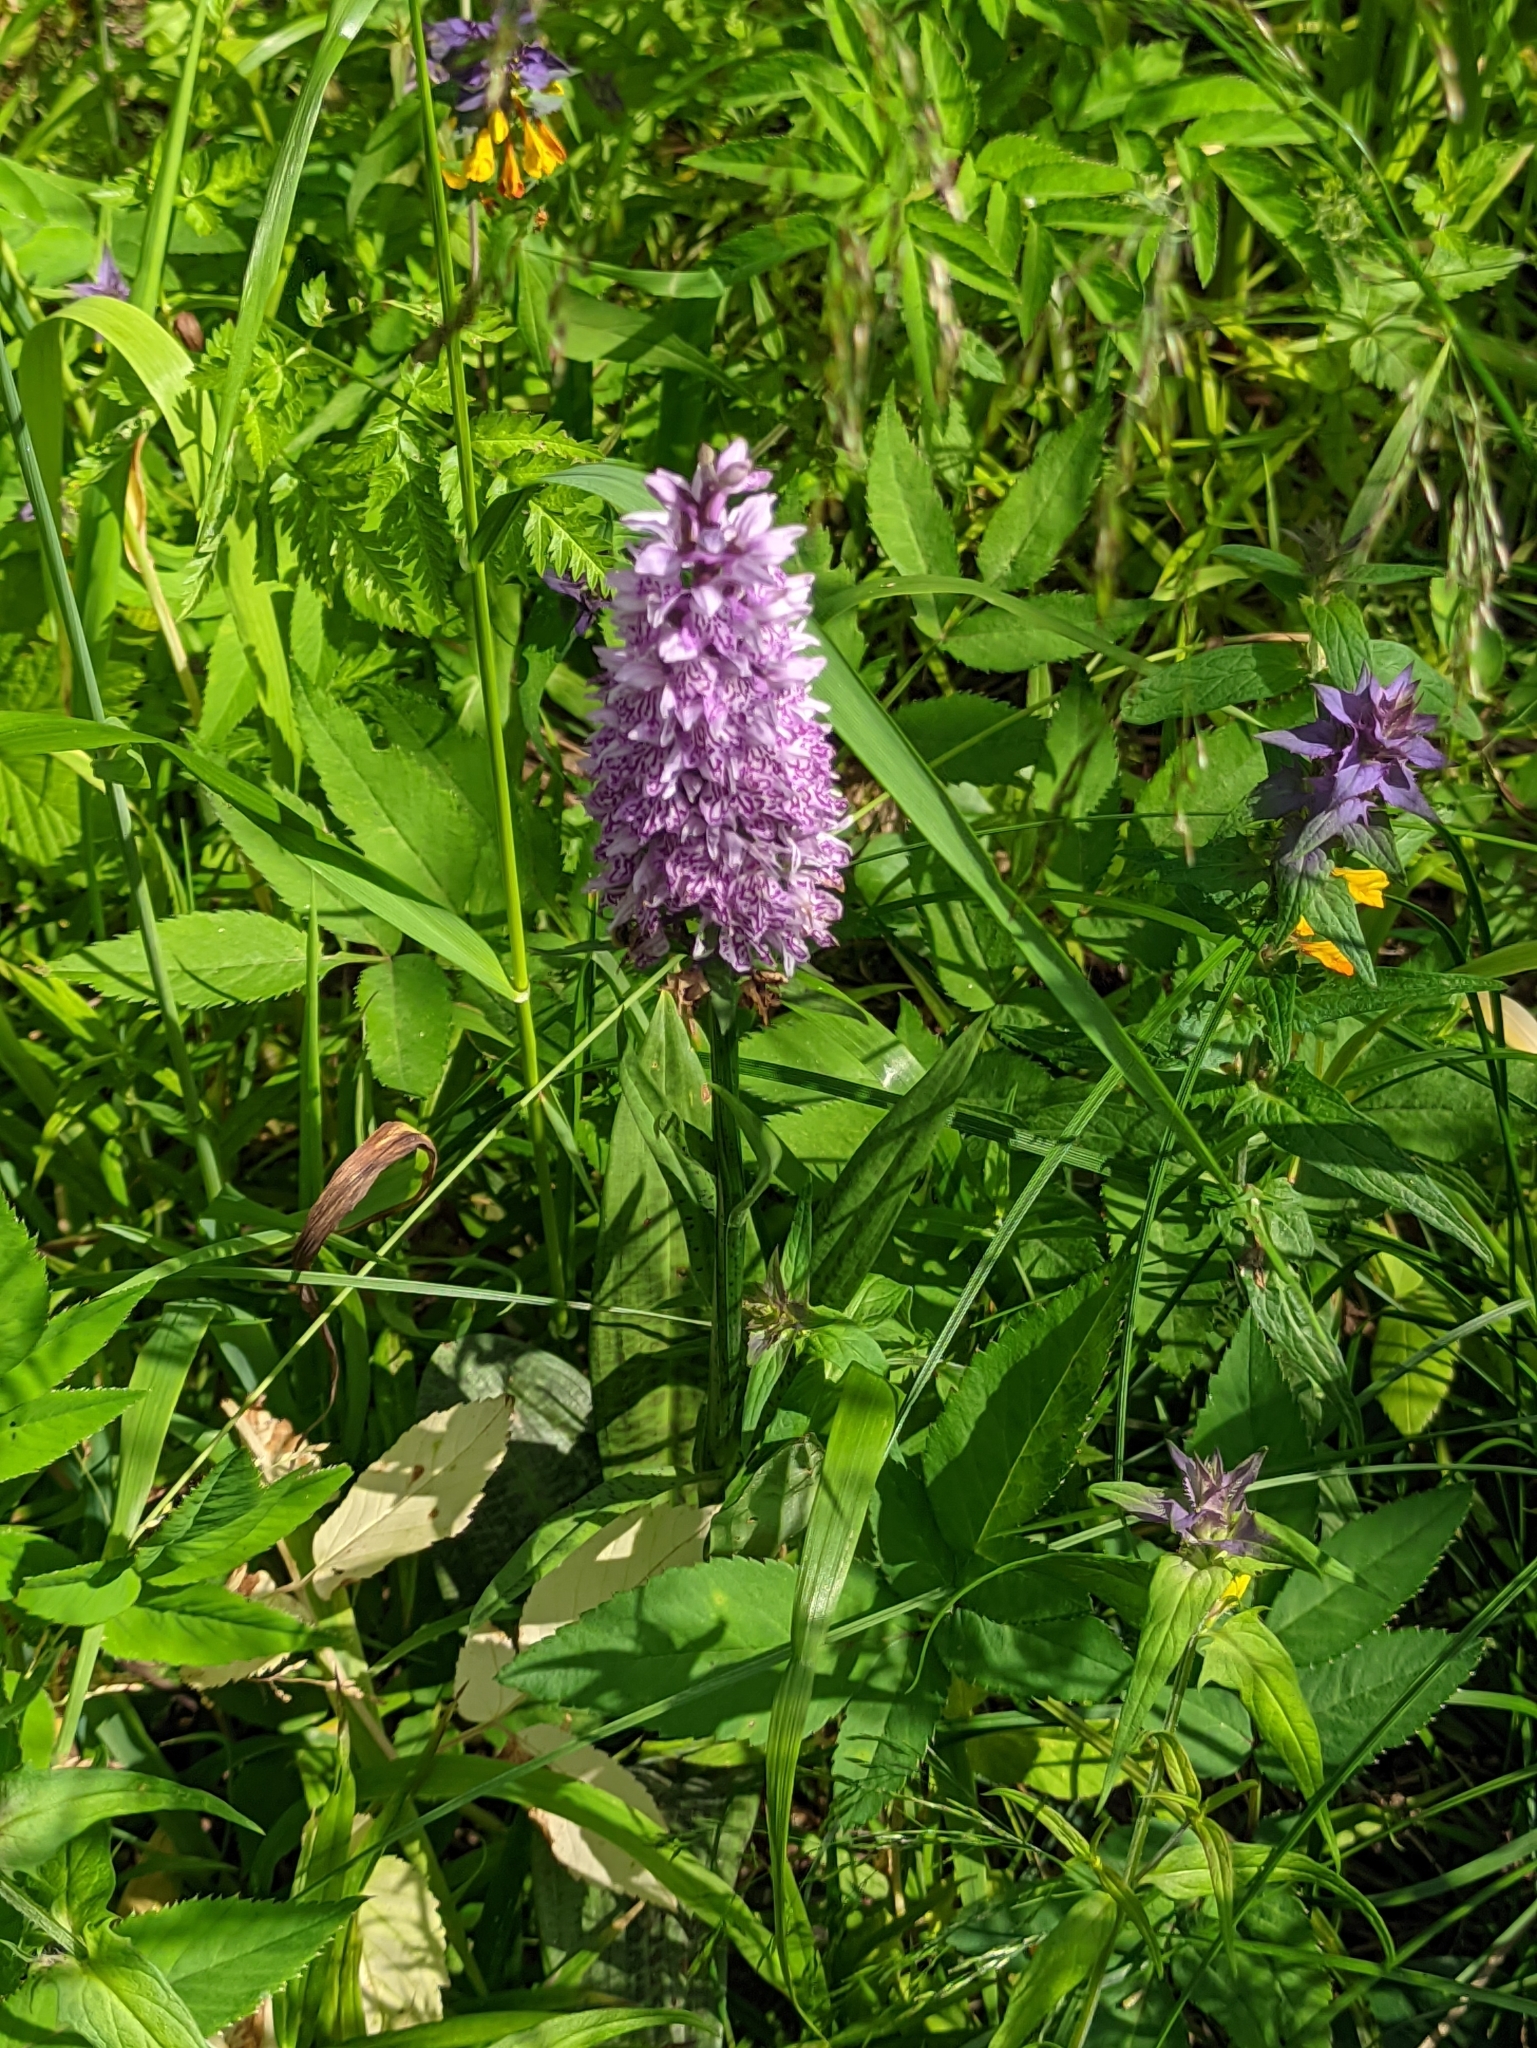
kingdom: Plantae
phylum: Tracheophyta
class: Liliopsida
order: Asparagales
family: Orchidaceae
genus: Dactylorhiza
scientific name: Dactylorhiza maculata
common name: Heath spotted-orchid
